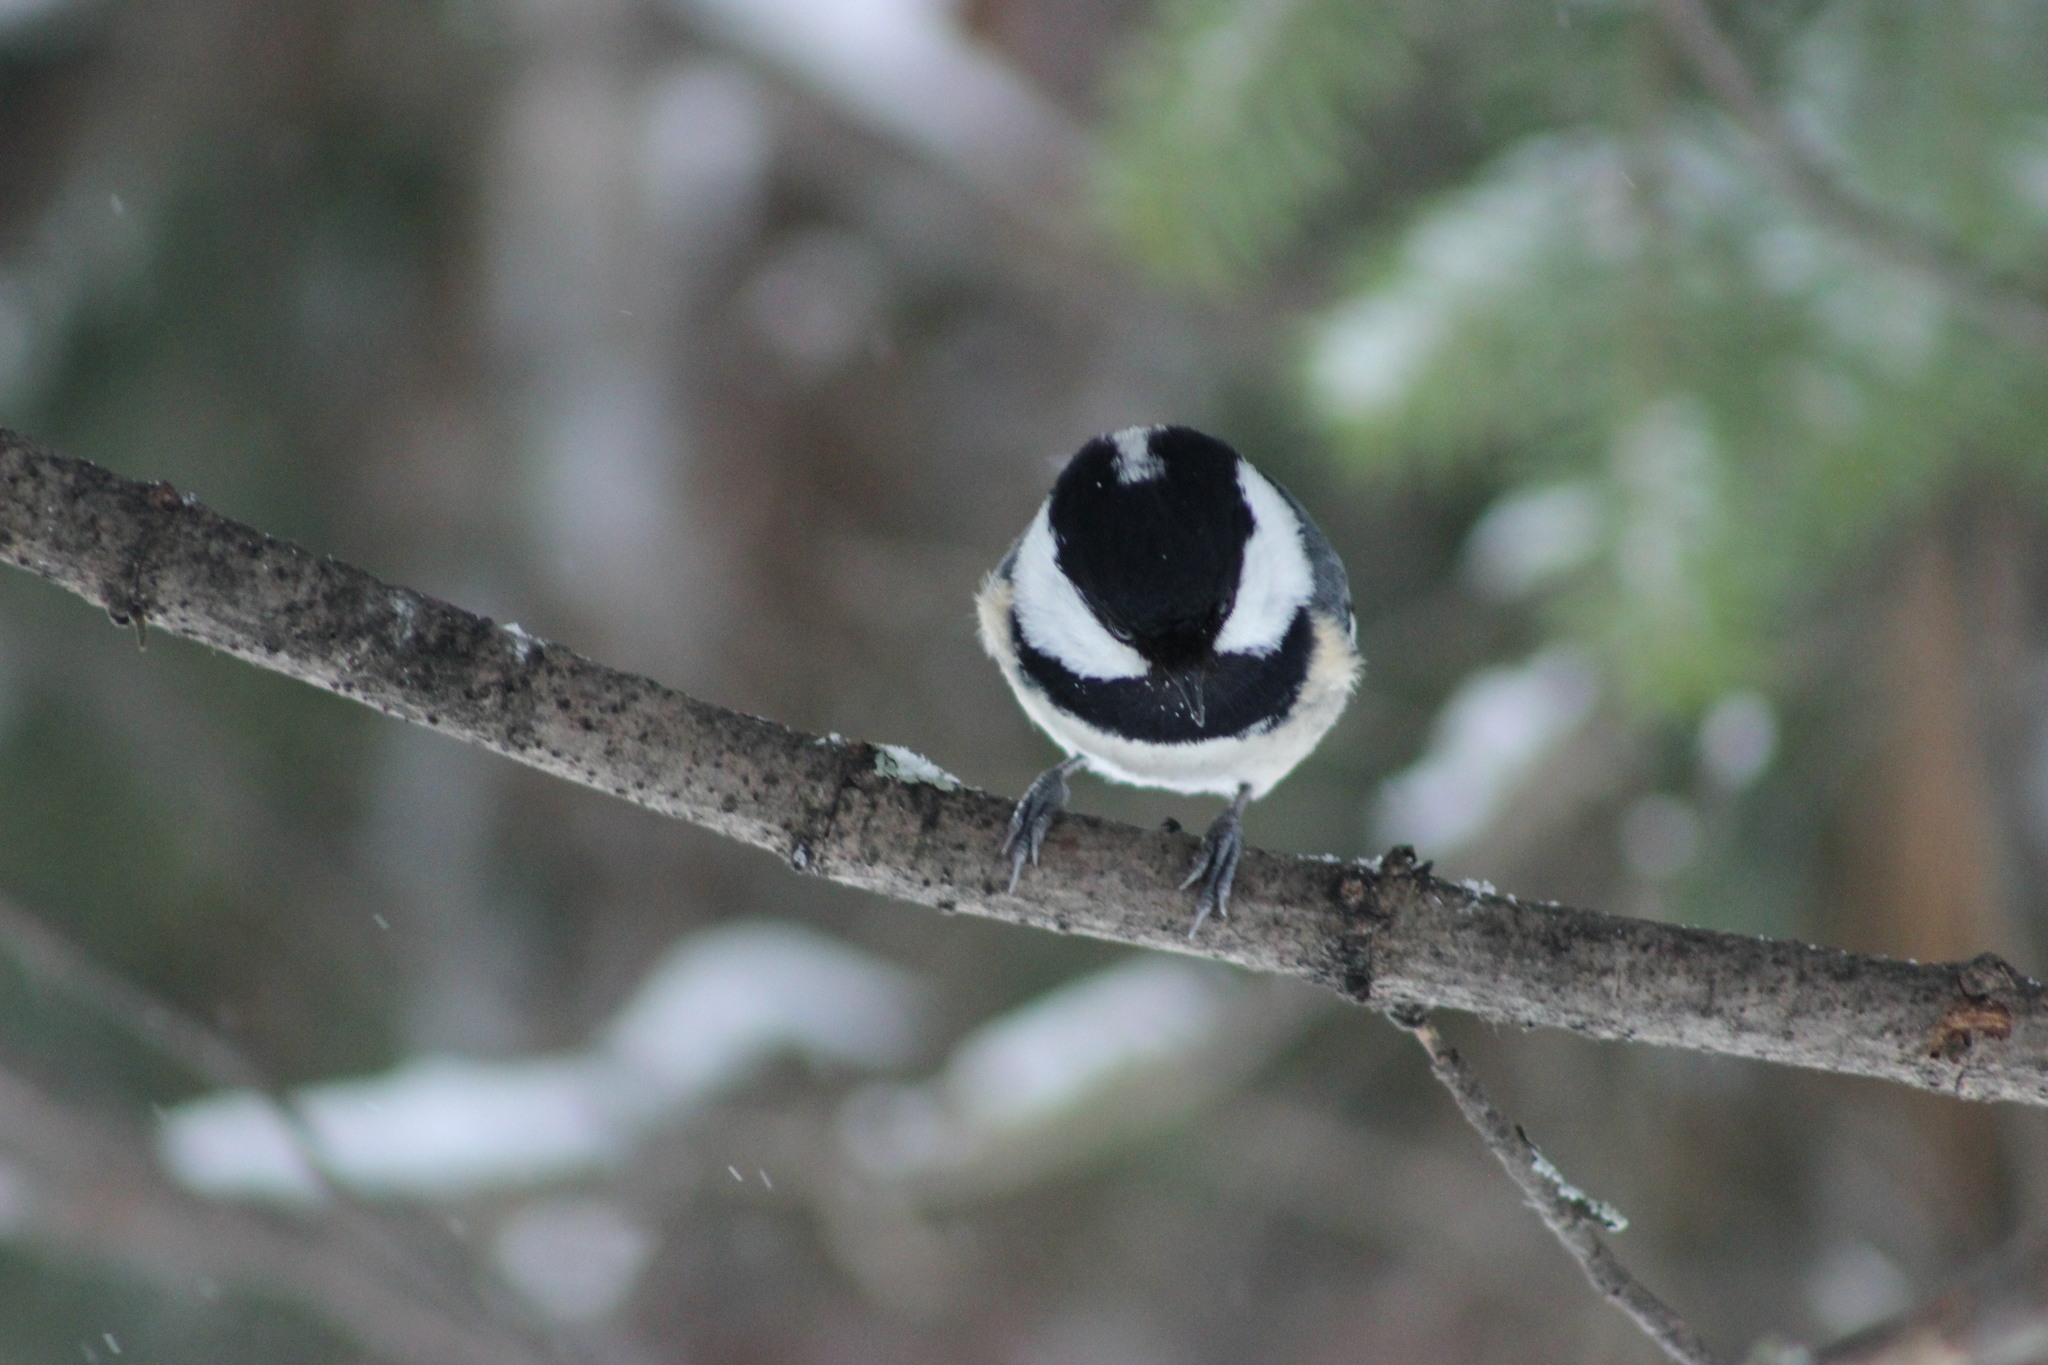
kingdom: Animalia
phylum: Chordata
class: Aves
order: Passeriformes
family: Paridae
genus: Periparus
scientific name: Periparus ater
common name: Coal tit
